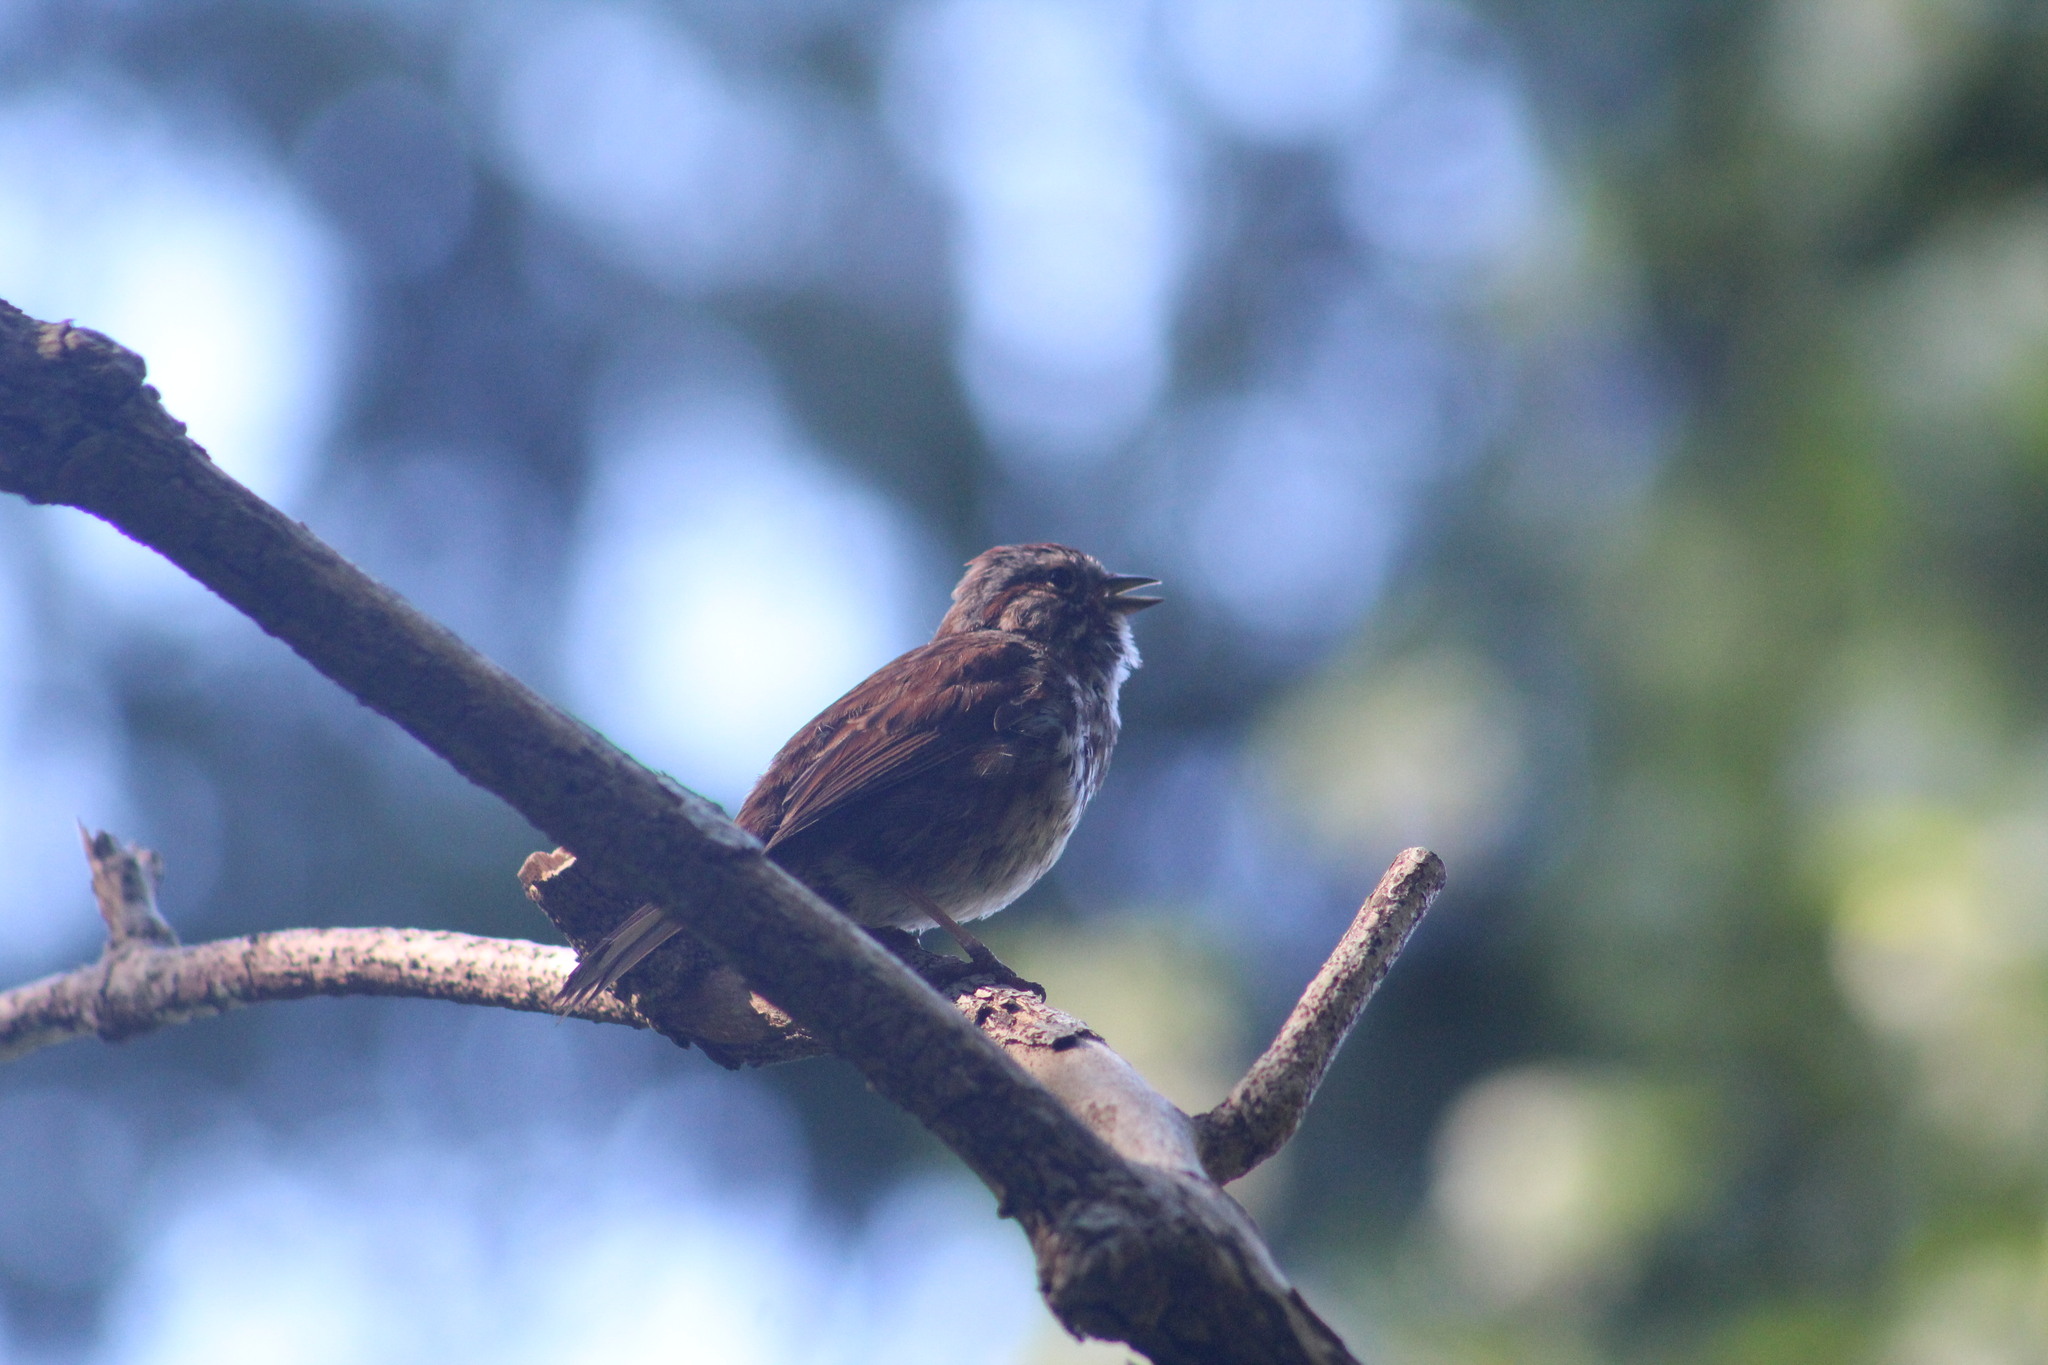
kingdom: Animalia
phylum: Chordata
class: Aves
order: Passeriformes
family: Passerellidae
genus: Melospiza
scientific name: Melospiza melodia
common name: Song sparrow
